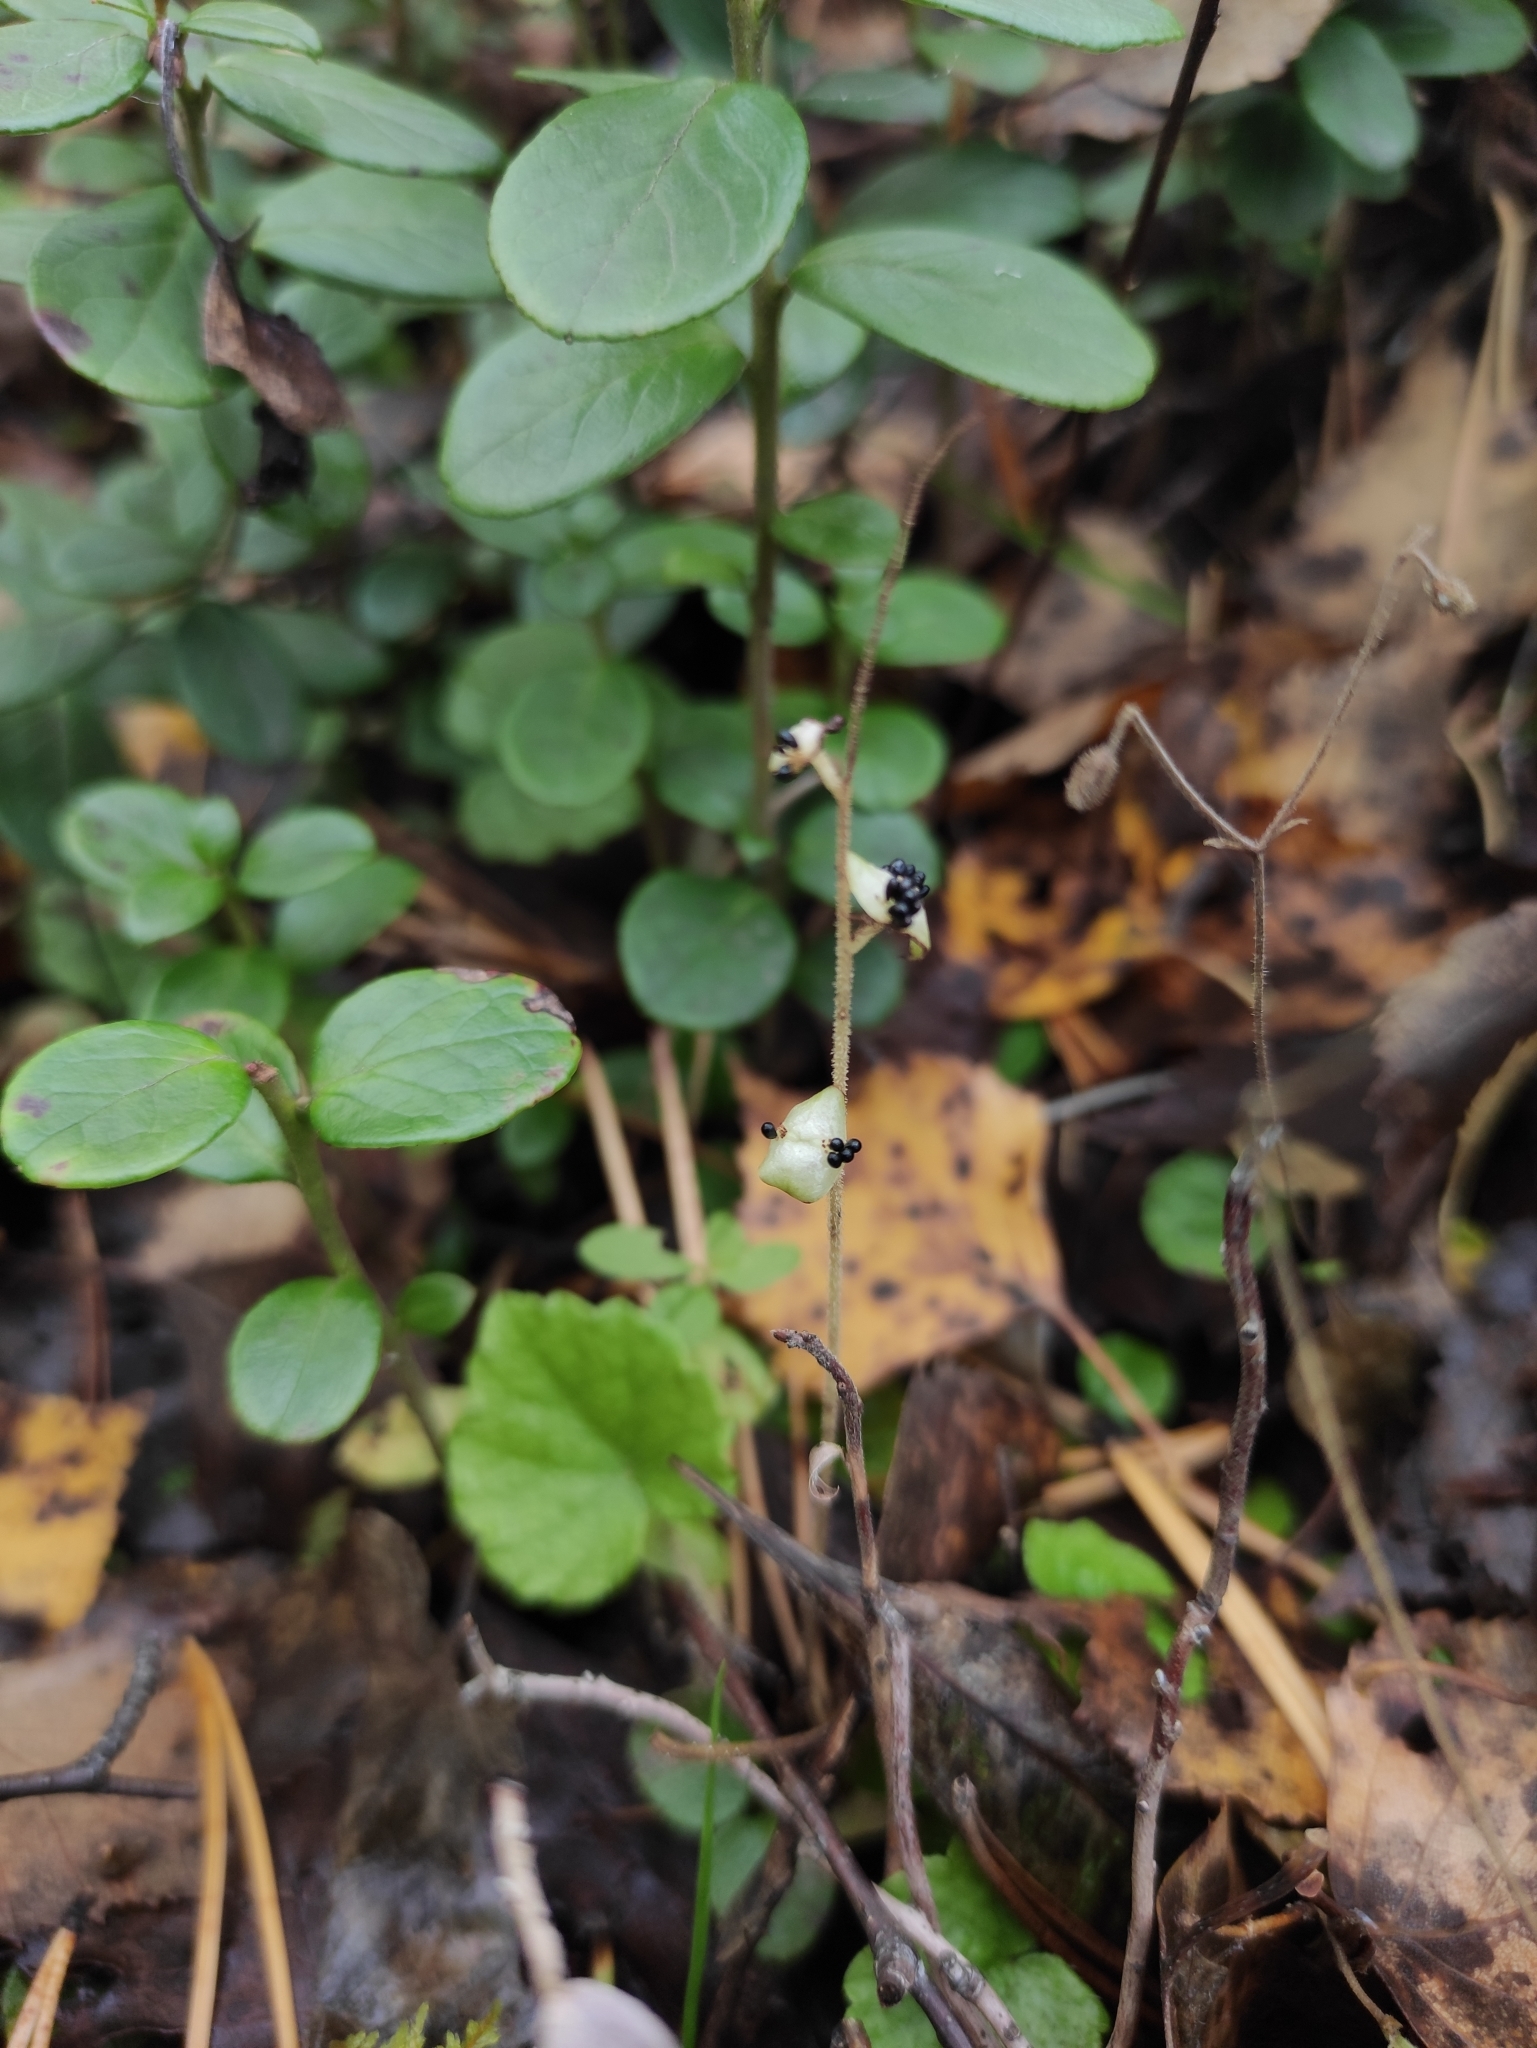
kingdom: Plantae
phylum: Tracheophyta
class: Magnoliopsida
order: Saxifragales
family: Saxifragaceae
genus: Mitella
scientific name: Mitella nuda
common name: Bare-stemmed bishop's-cap
